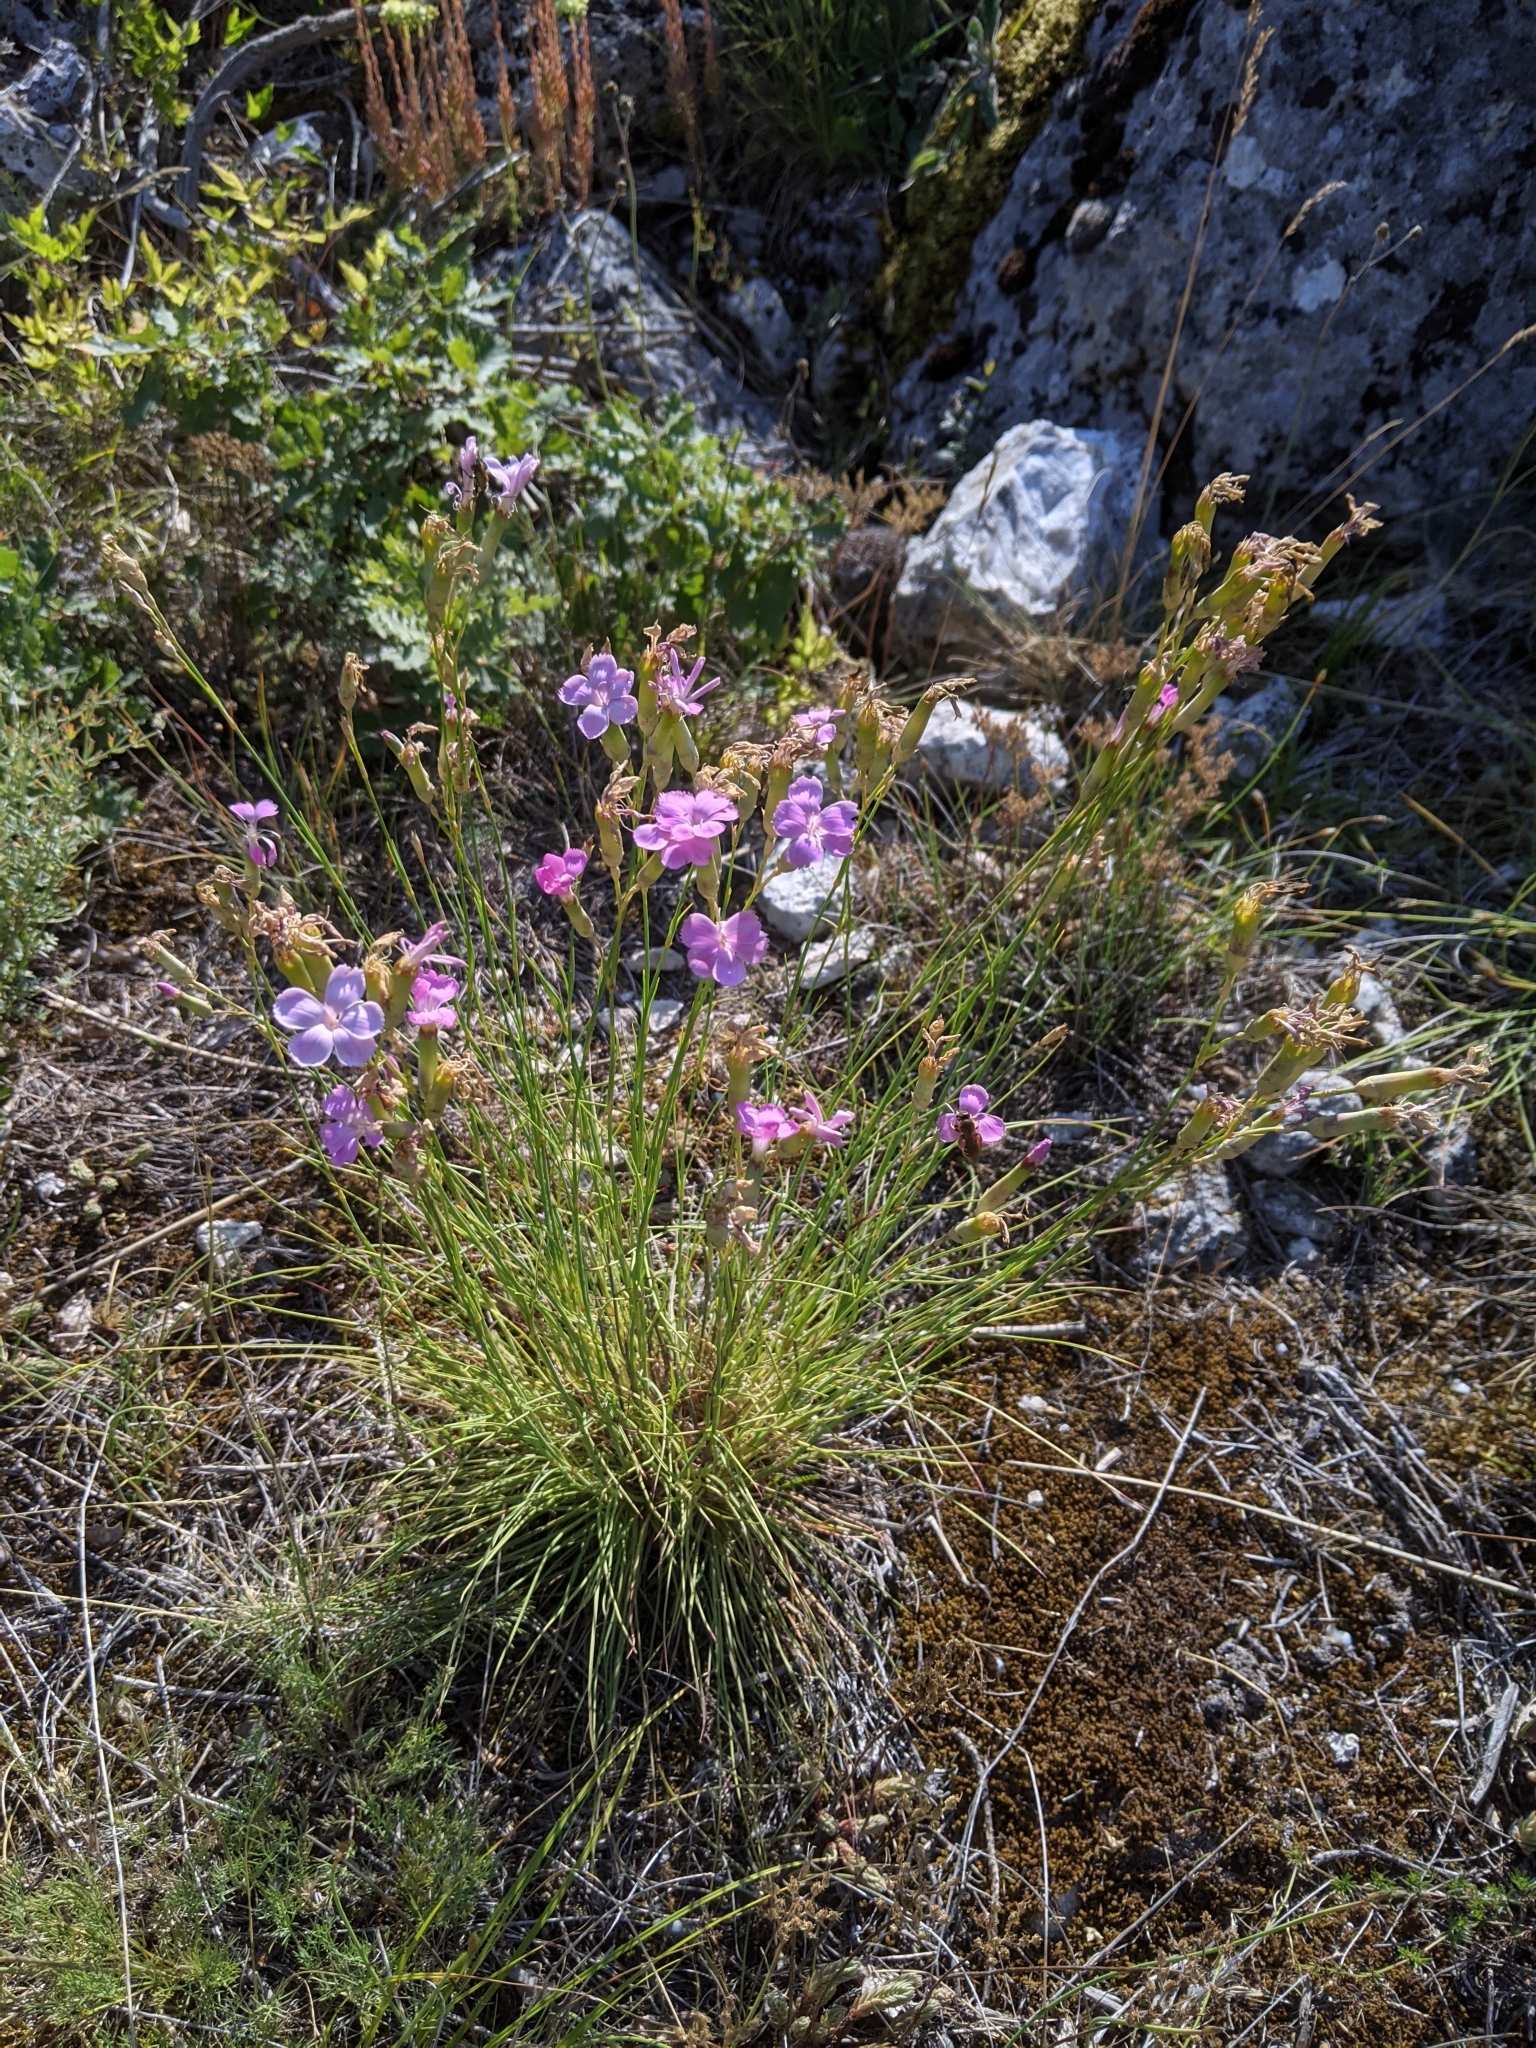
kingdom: Plantae
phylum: Tracheophyta
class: Magnoliopsida
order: Caryophyllales
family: Caryophyllaceae
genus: Dianthus
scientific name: Dianthus sylvestris
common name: Wood pink
